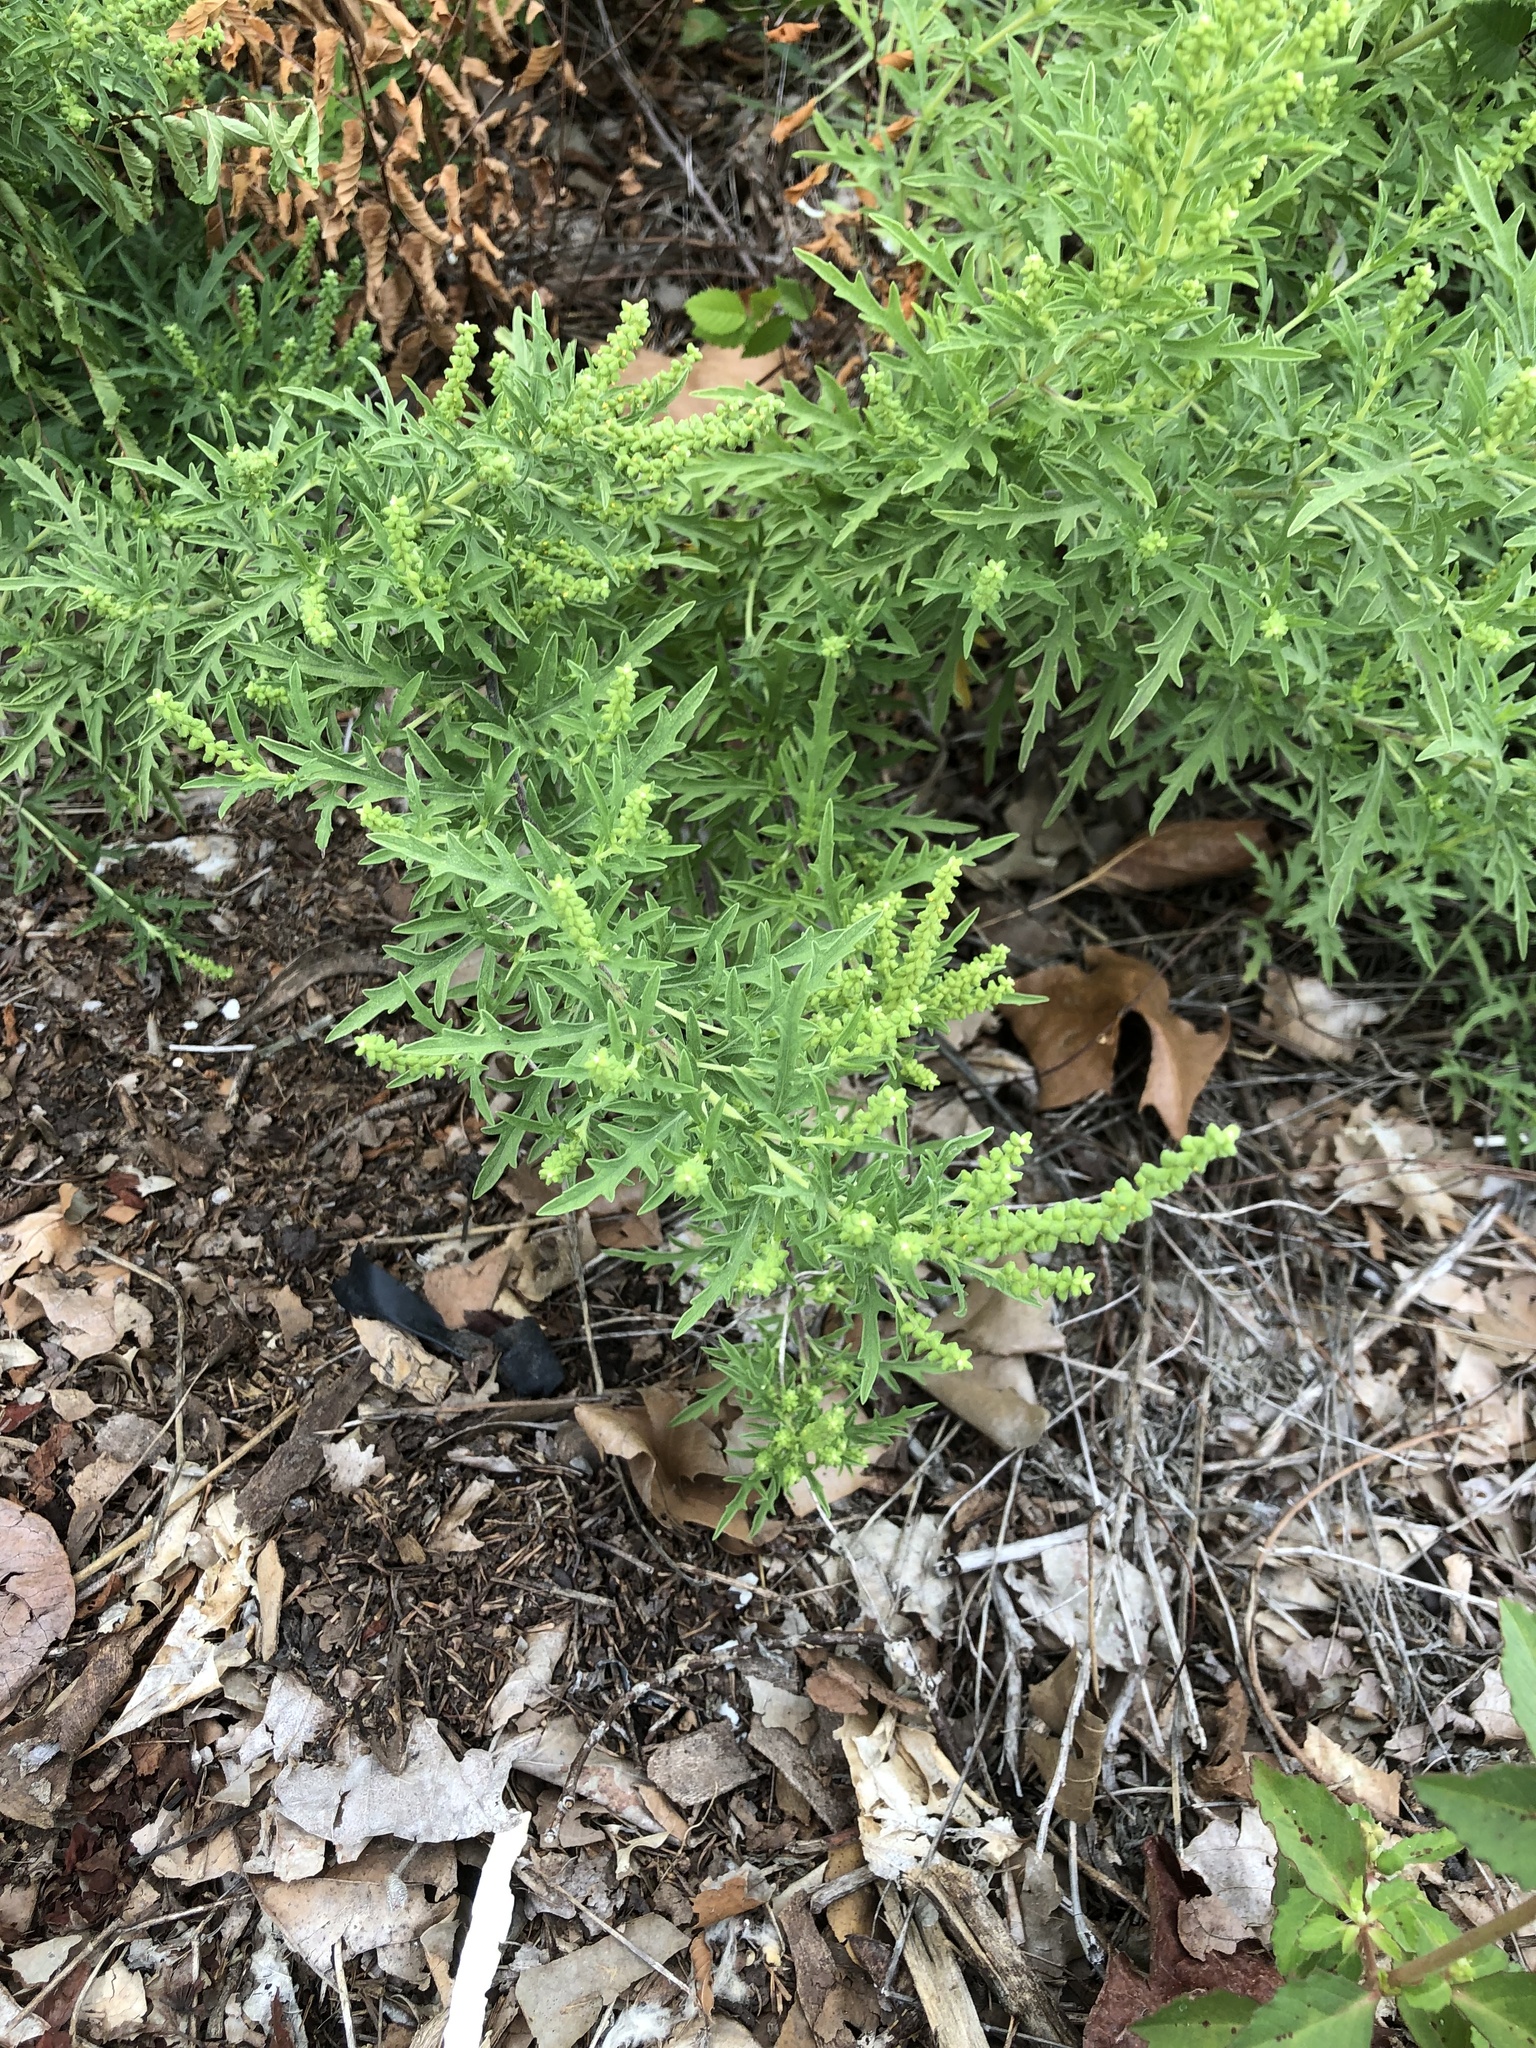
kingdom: Plantae
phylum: Tracheophyta
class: Magnoliopsida
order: Asterales
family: Asteraceae
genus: Ambrosia
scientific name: Ambrosia psilostachya
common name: Perennial ragweed
